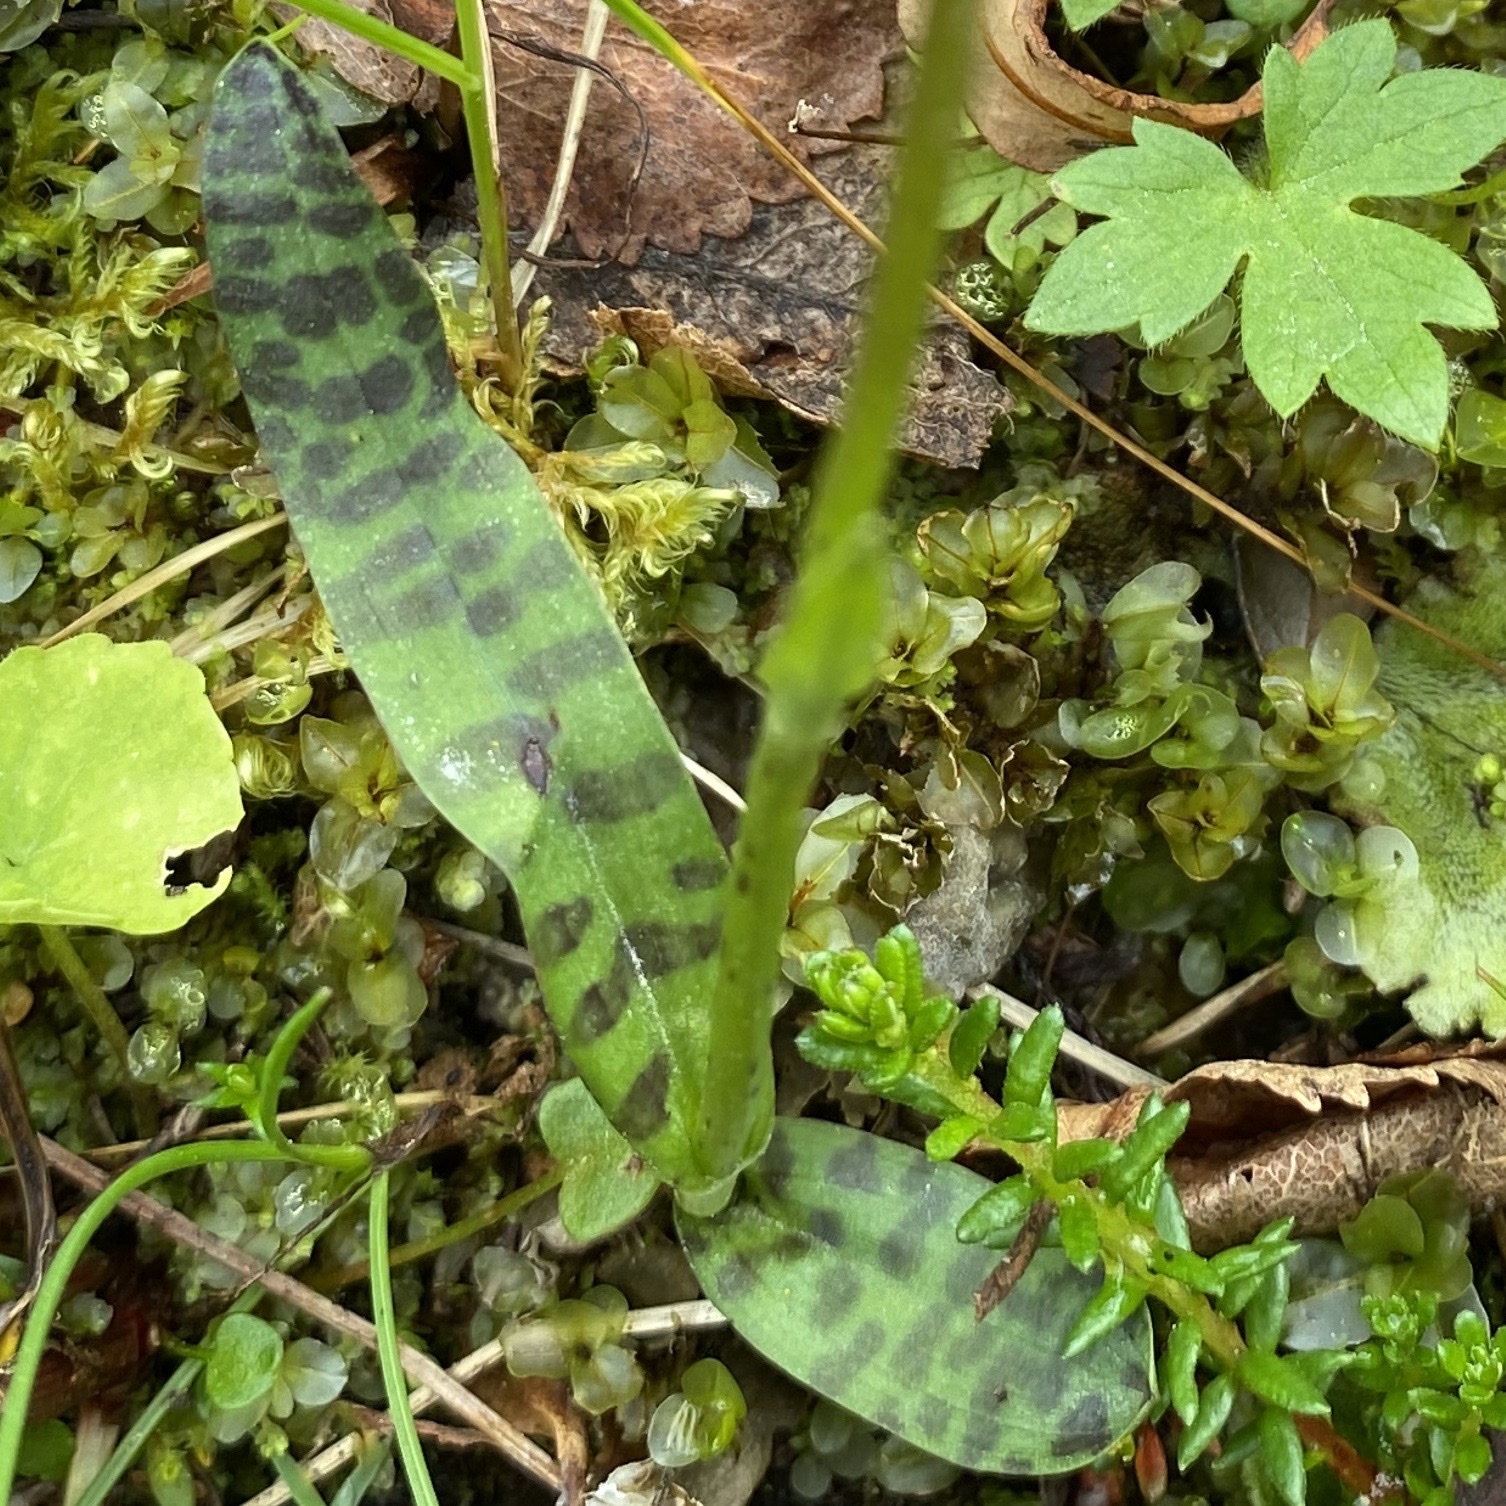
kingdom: Plantae
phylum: Tracheophyta
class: Liliopsida
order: Asparagales
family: Orchidaceae
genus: Dactylorhiza
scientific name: Dactylorhiza maculata
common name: Heath spotted-orchid
